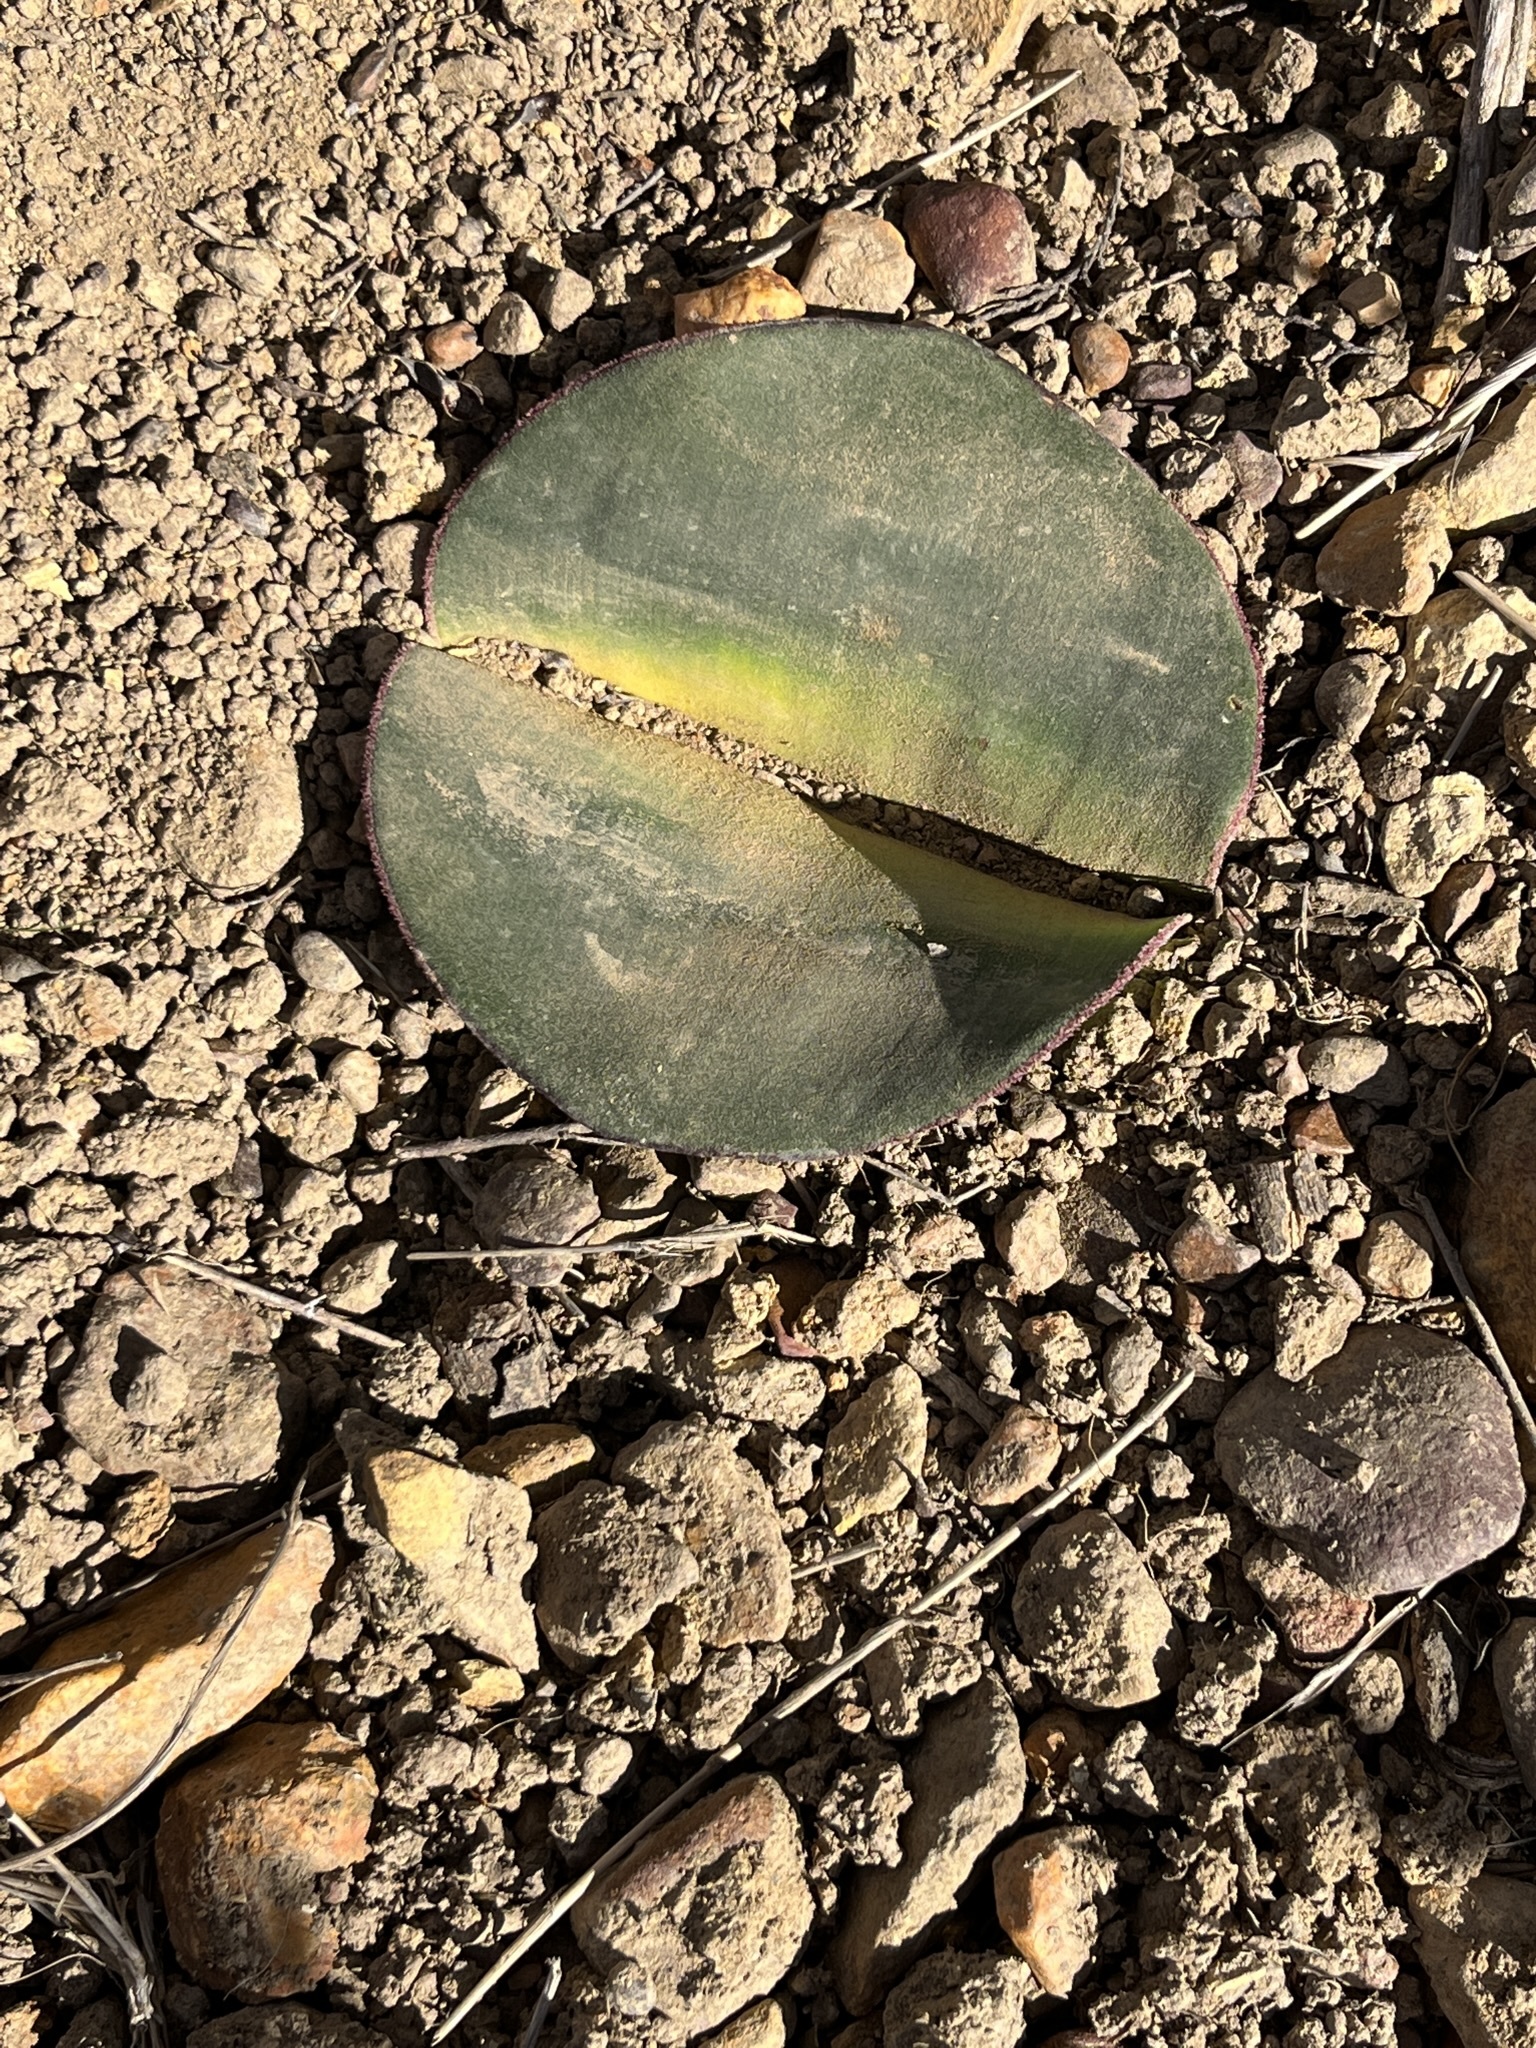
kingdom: Plantae
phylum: Tracheophyta
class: Liliopsida
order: Asparagales
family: Amaryllidaceae
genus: Haemanthus
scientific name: Haemanthus sanguineus
